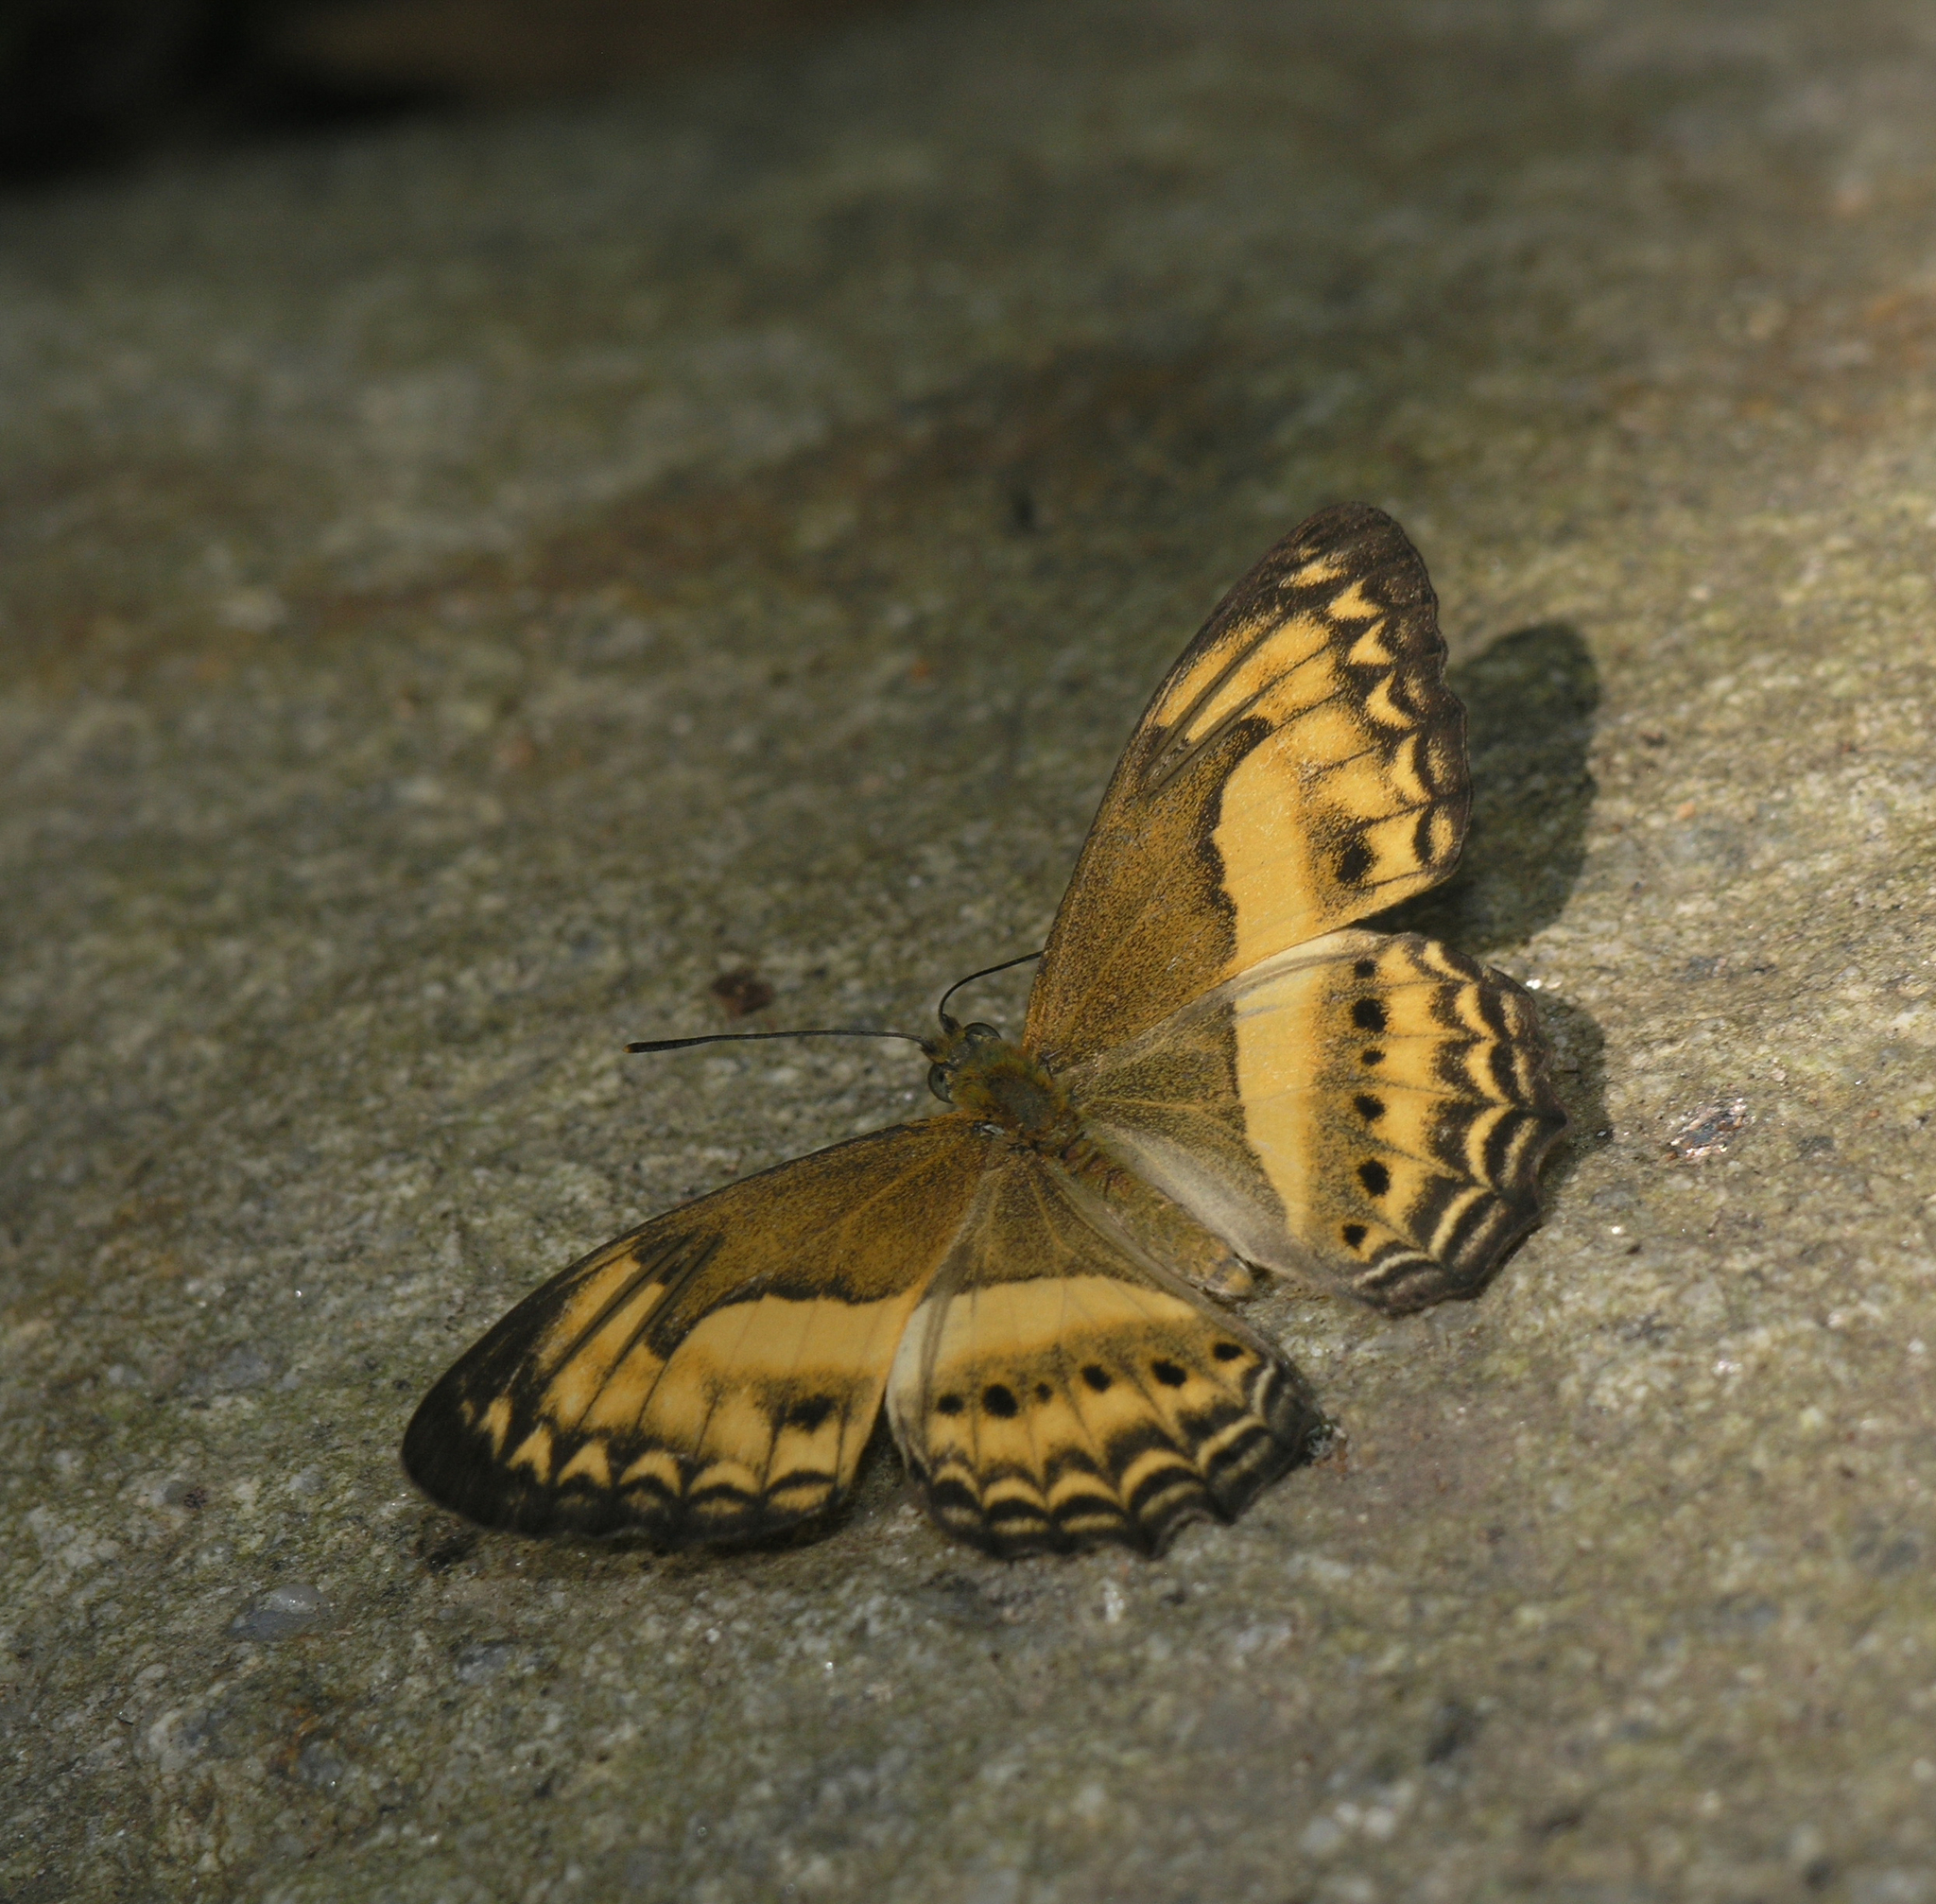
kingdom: Animalia
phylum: Arthropoda
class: Insecta
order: Lepidoptera
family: Nymphalidae
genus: Algia
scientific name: Algia fasciata
